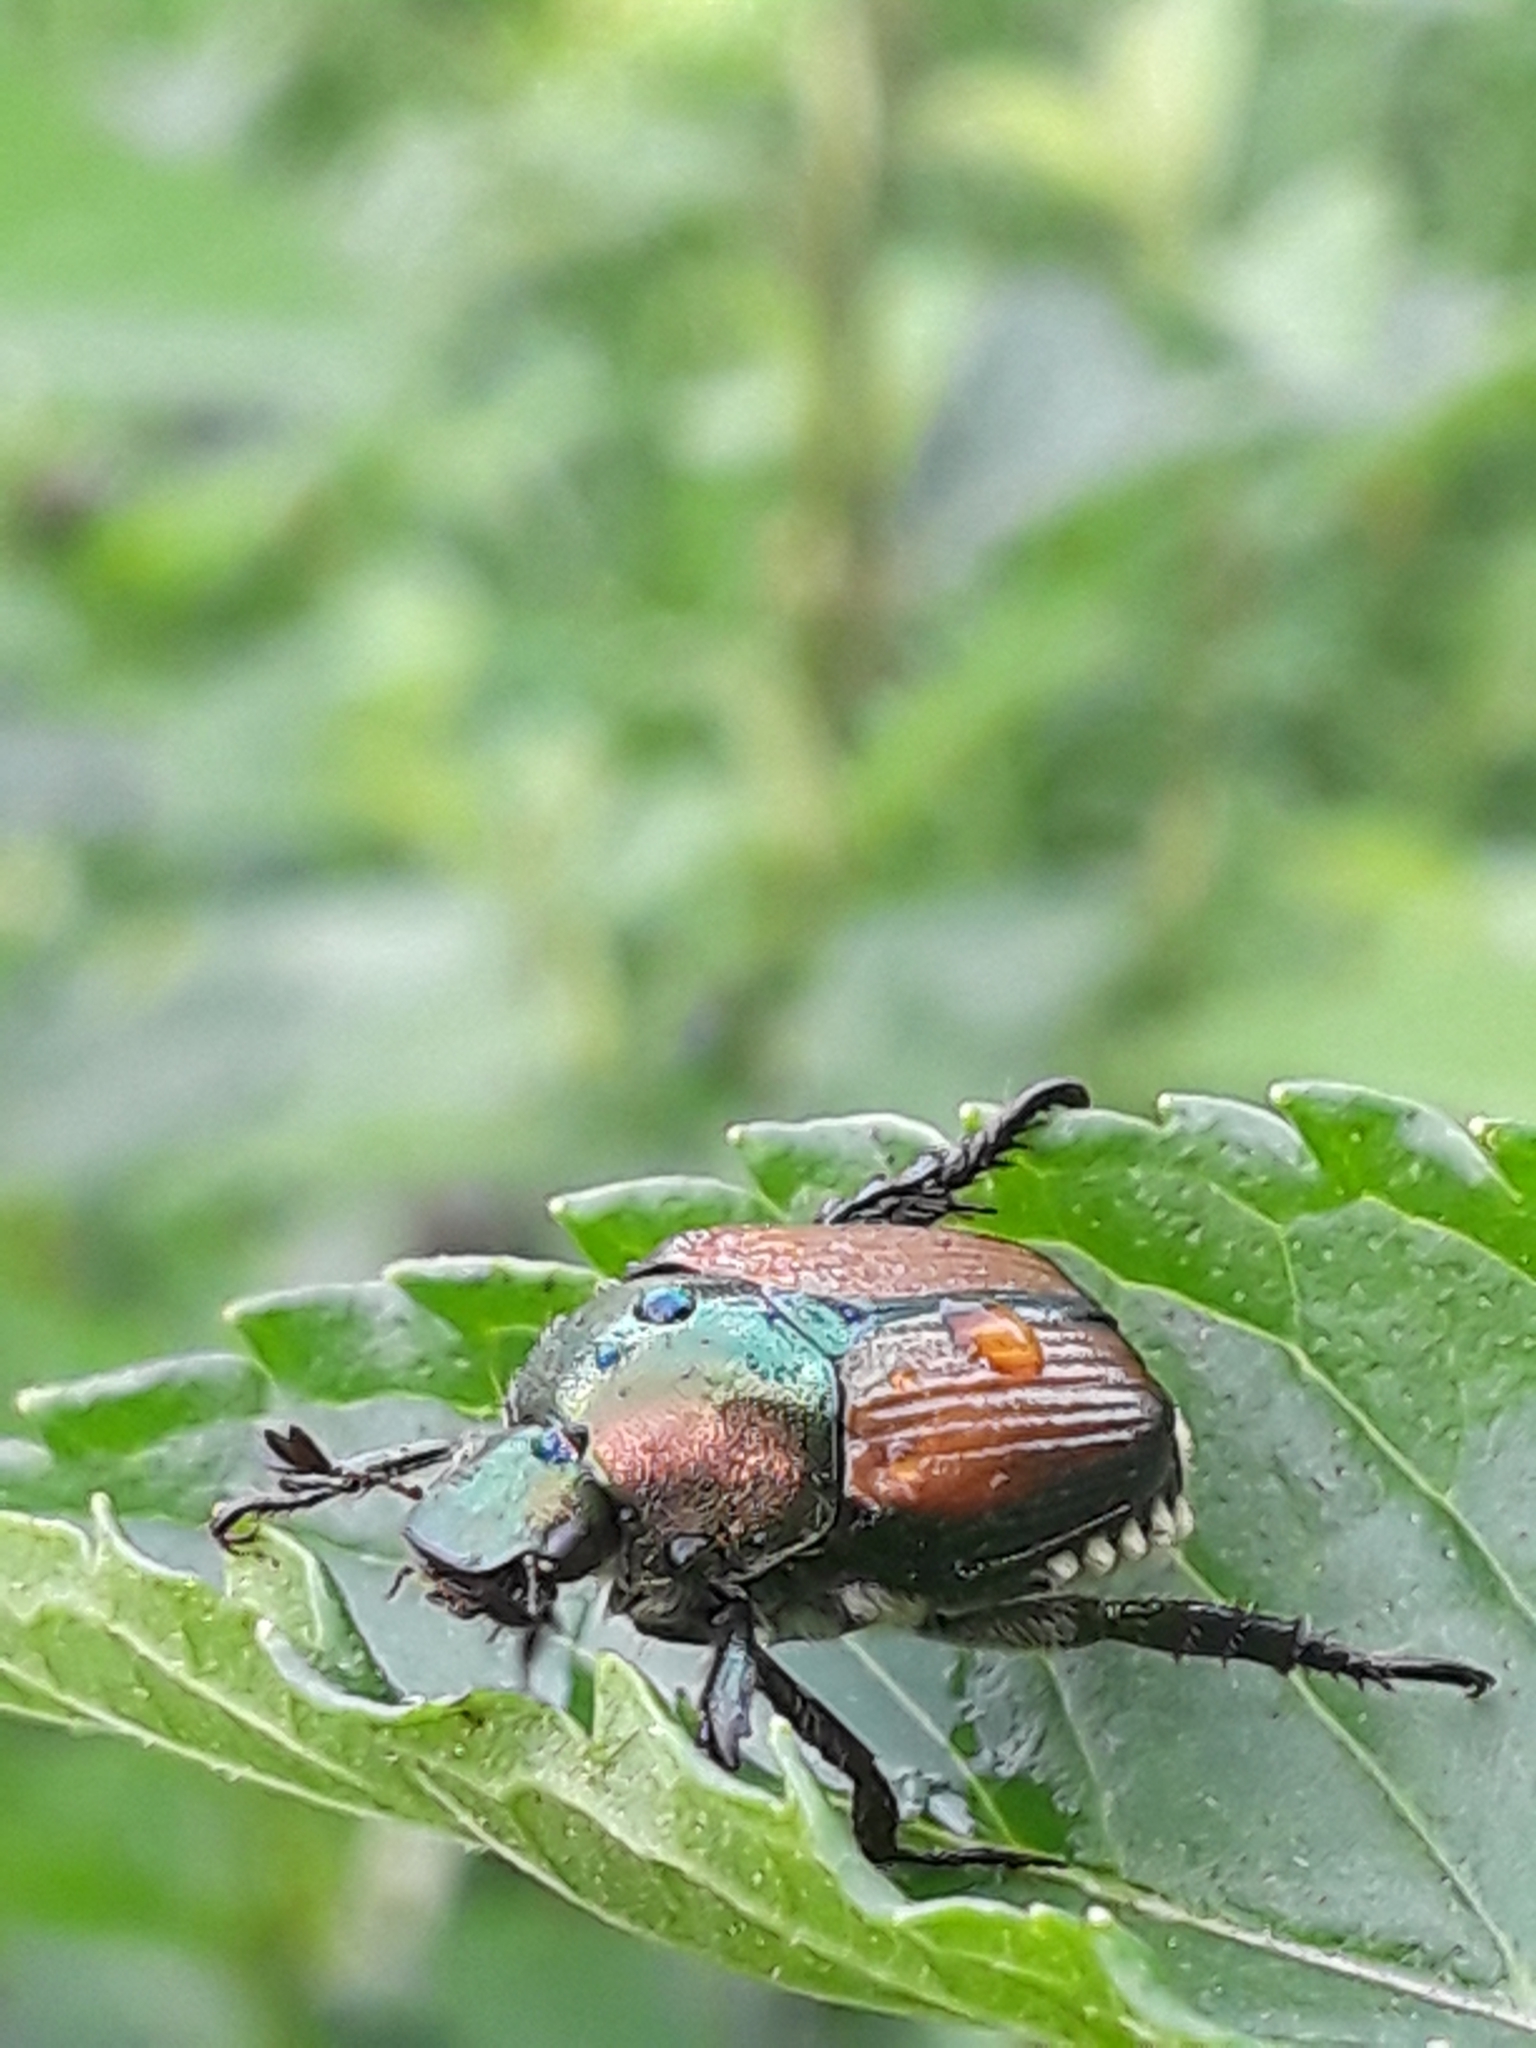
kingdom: Animalia
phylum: Arthropoda
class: Insecta
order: Coleoptera
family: Scarabaeidae
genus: Popillia
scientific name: Popillia japonica
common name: Japanese beetle
